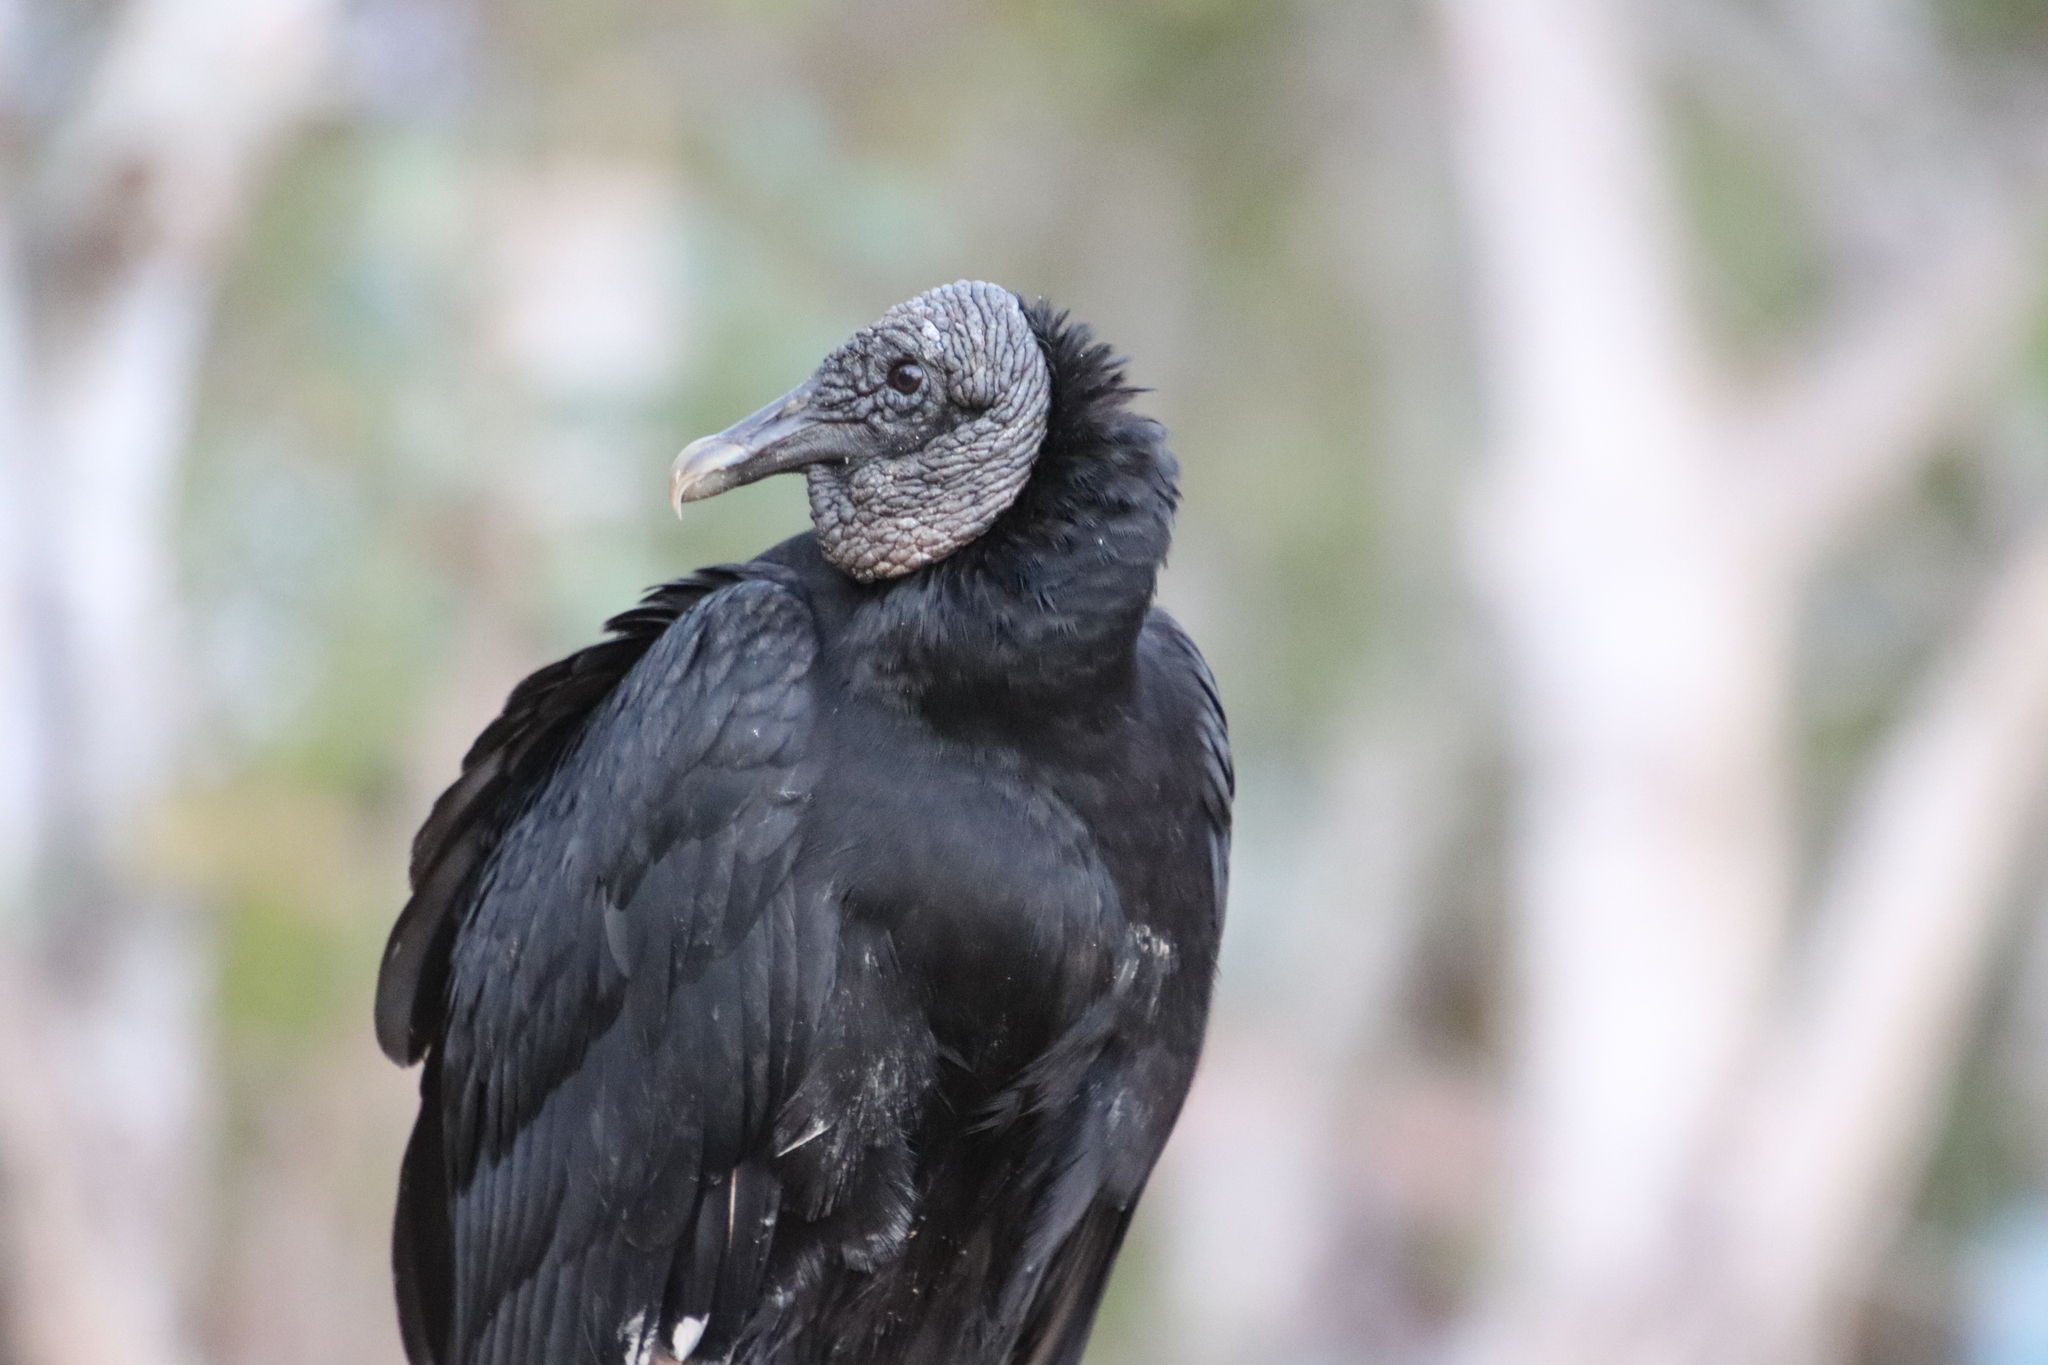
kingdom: Animalia
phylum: Chordata
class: Aves
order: Accipitriformes
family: Cathartidae
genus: Coragyps
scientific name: Coragyps atratus
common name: Black vulture
